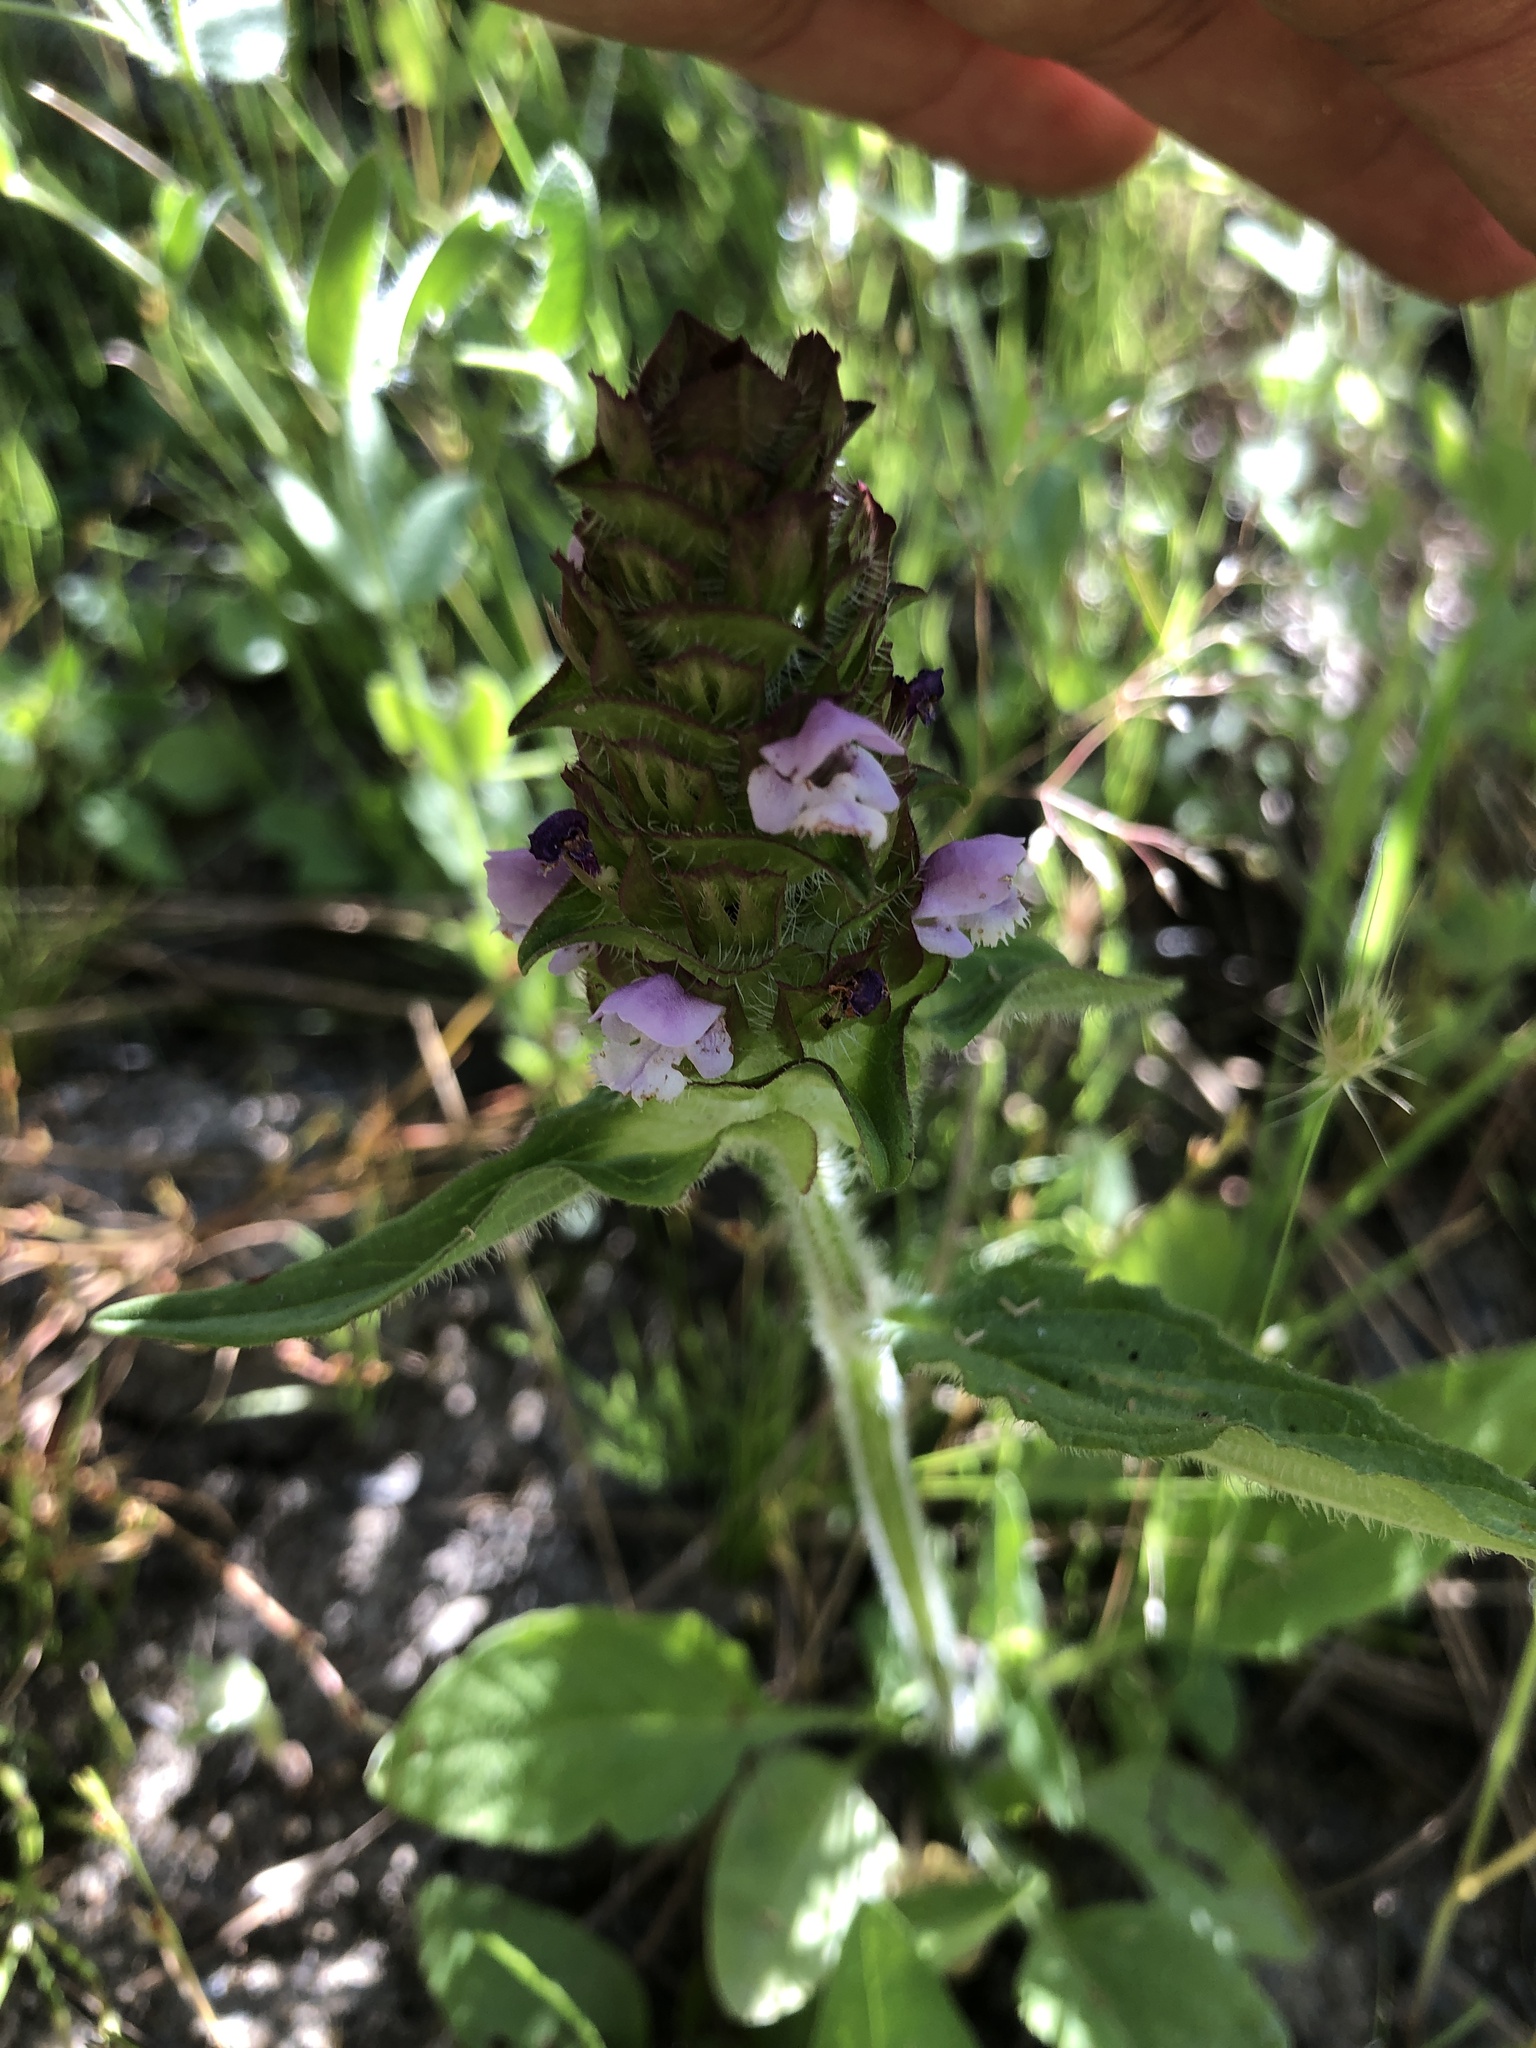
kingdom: Plantae
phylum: Tracheophyta
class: Magnoliopsida
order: Lamiales
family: Lamiaceae
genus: Prunella
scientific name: Prunella vulgaris
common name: Heal-all
